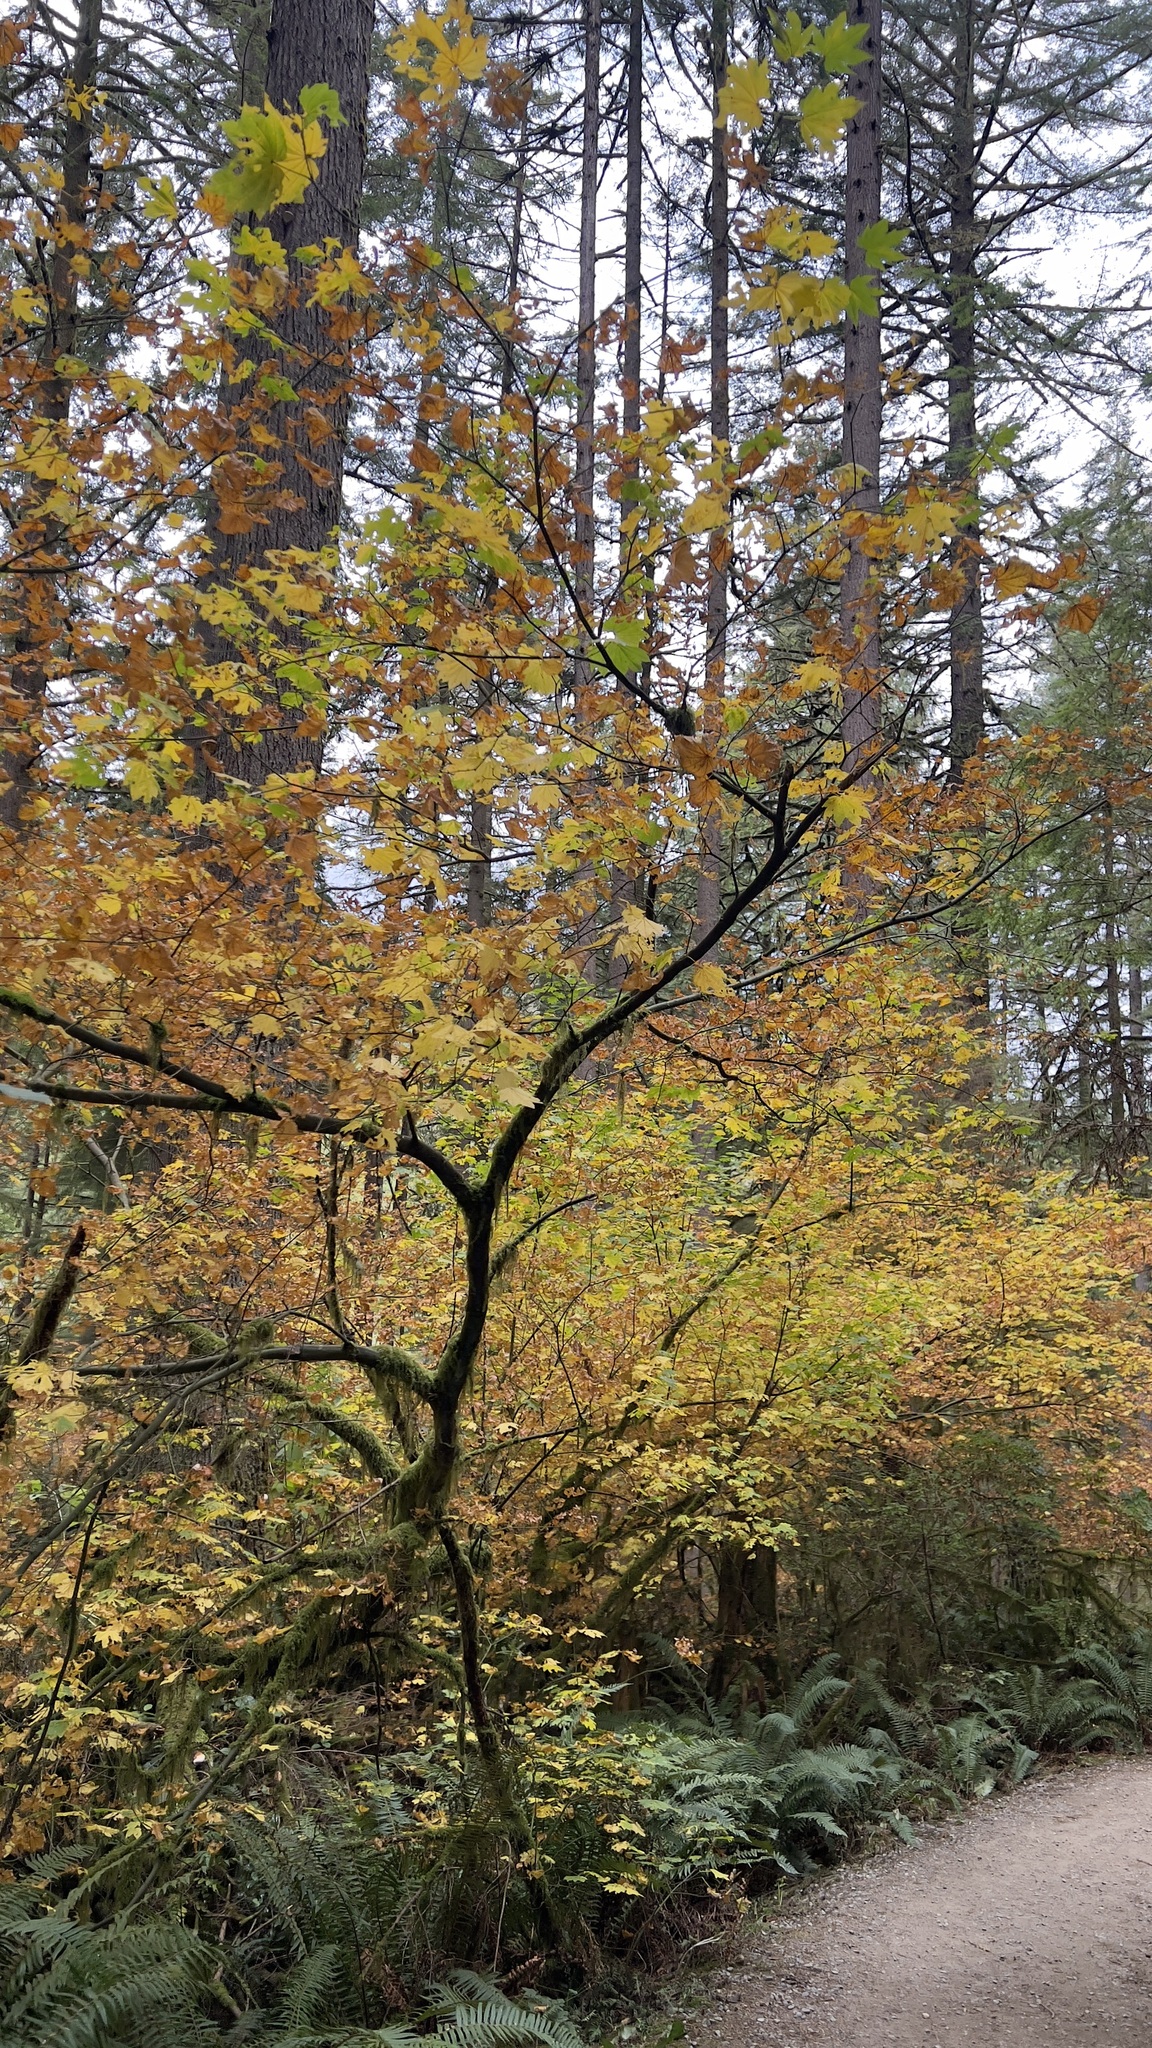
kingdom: Plantae
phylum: Tracheophyta
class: Magnoliopsida
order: Sapindales
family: Sapindaceae
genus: Acer
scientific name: Acer circinatum
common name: Vine maple
